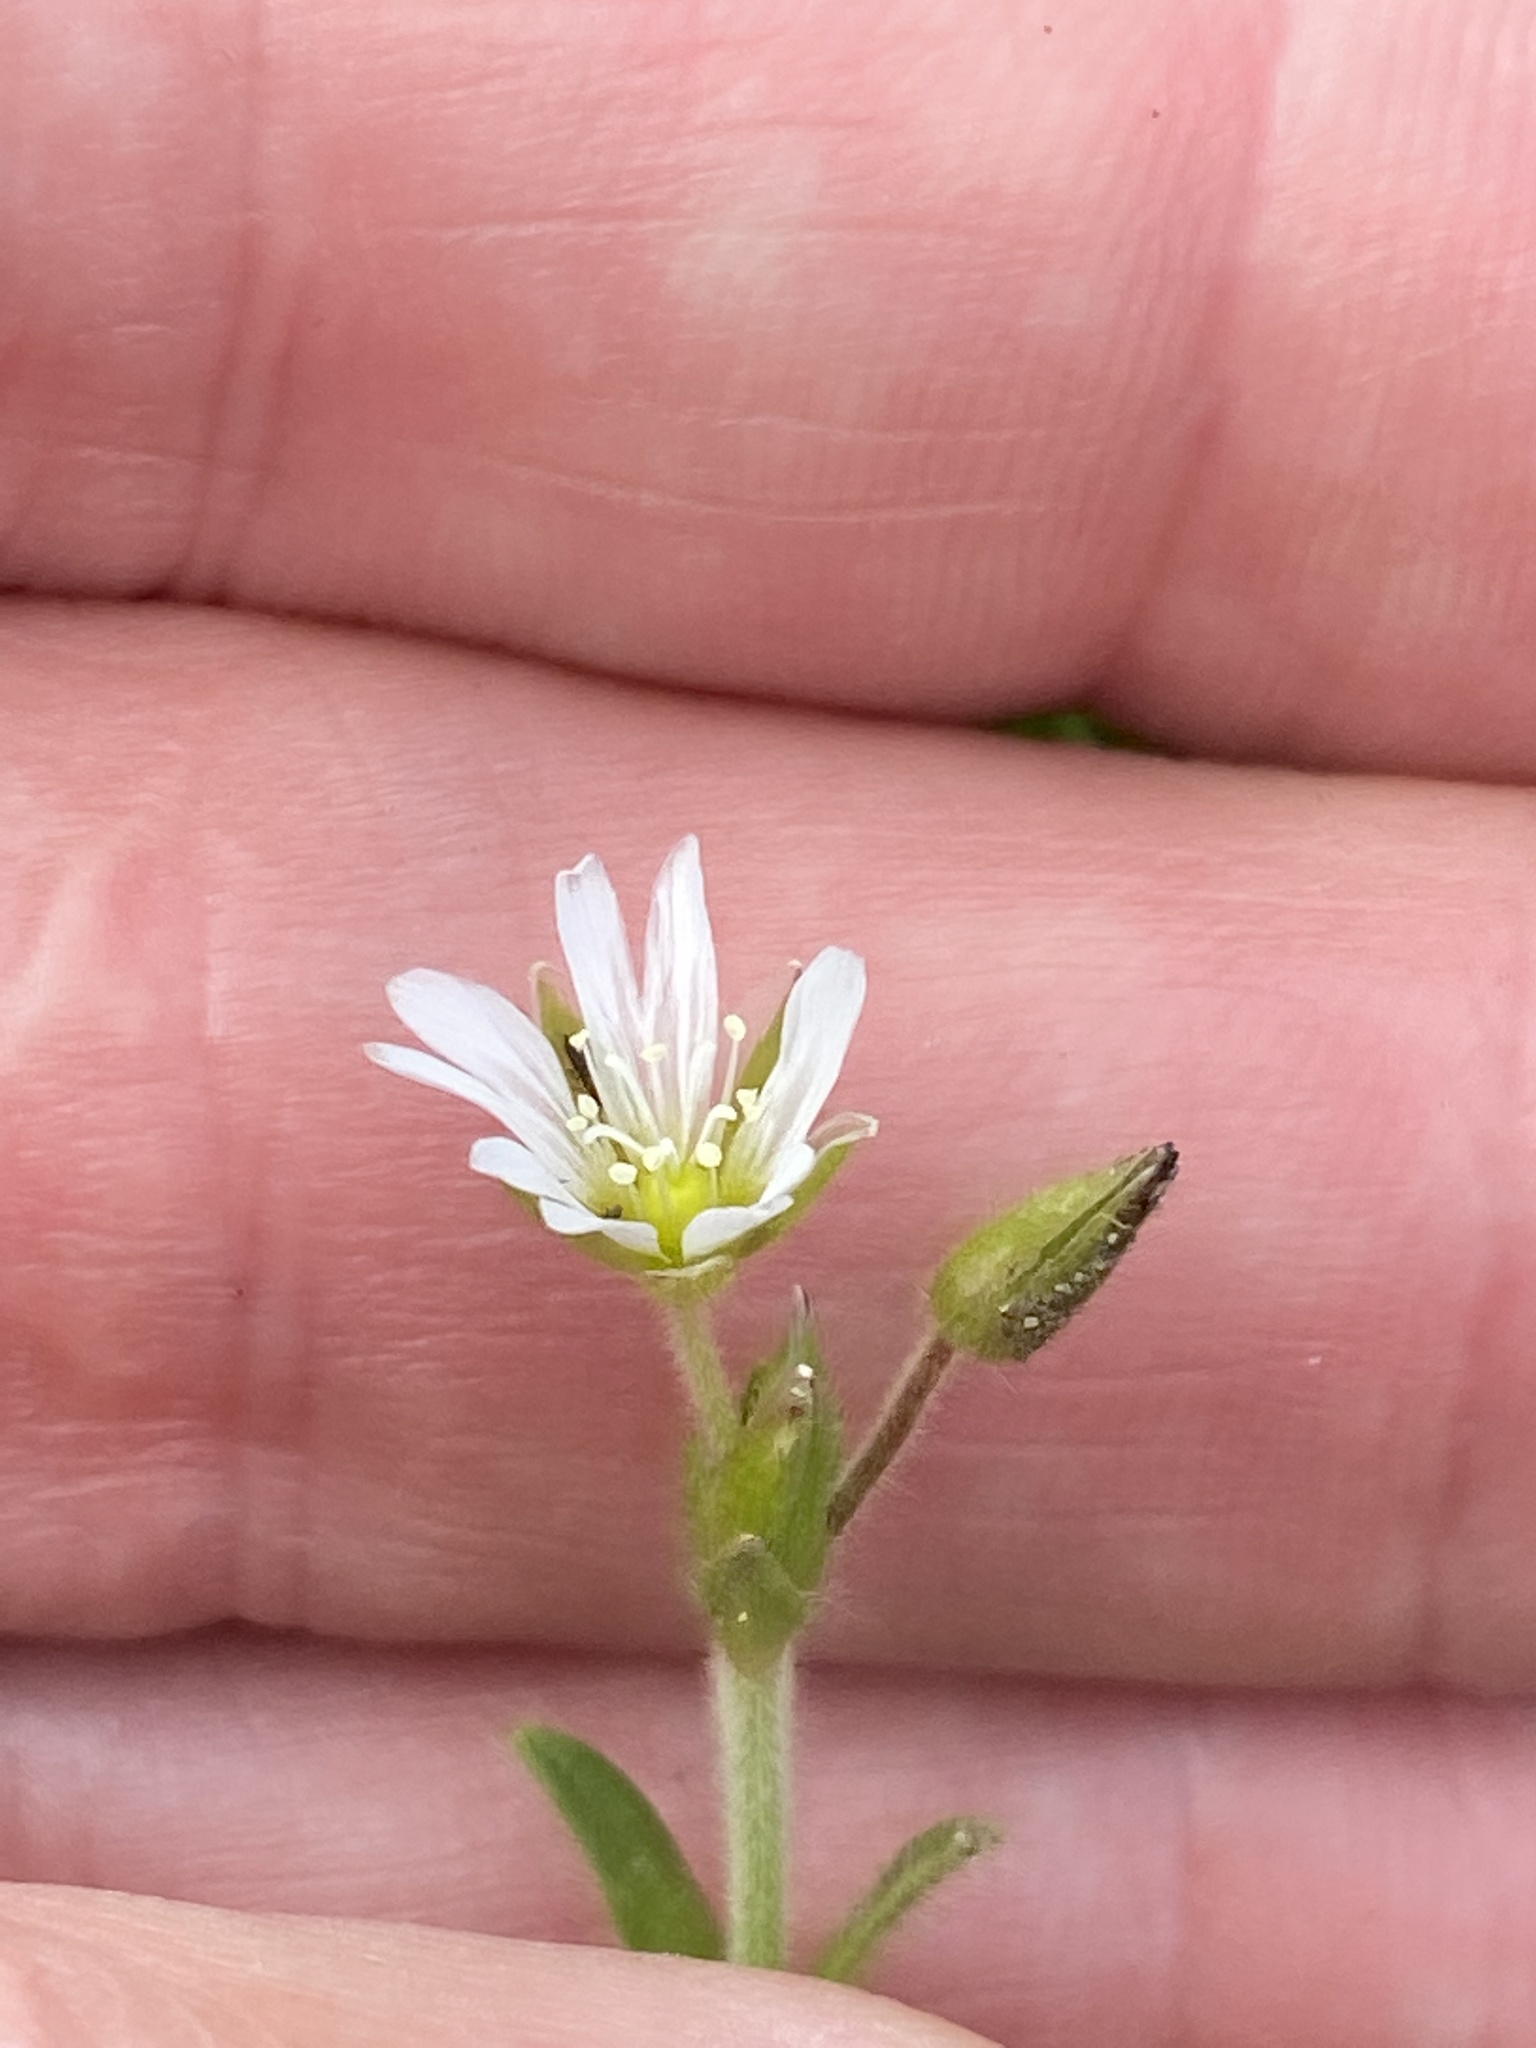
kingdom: Plantae
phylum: Tracheophyta
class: Magnoliopsida
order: Caryophyllales
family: Caryophyllaceae
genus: Cerastium
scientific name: Cerastium fontanum
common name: Common mouse-ear
